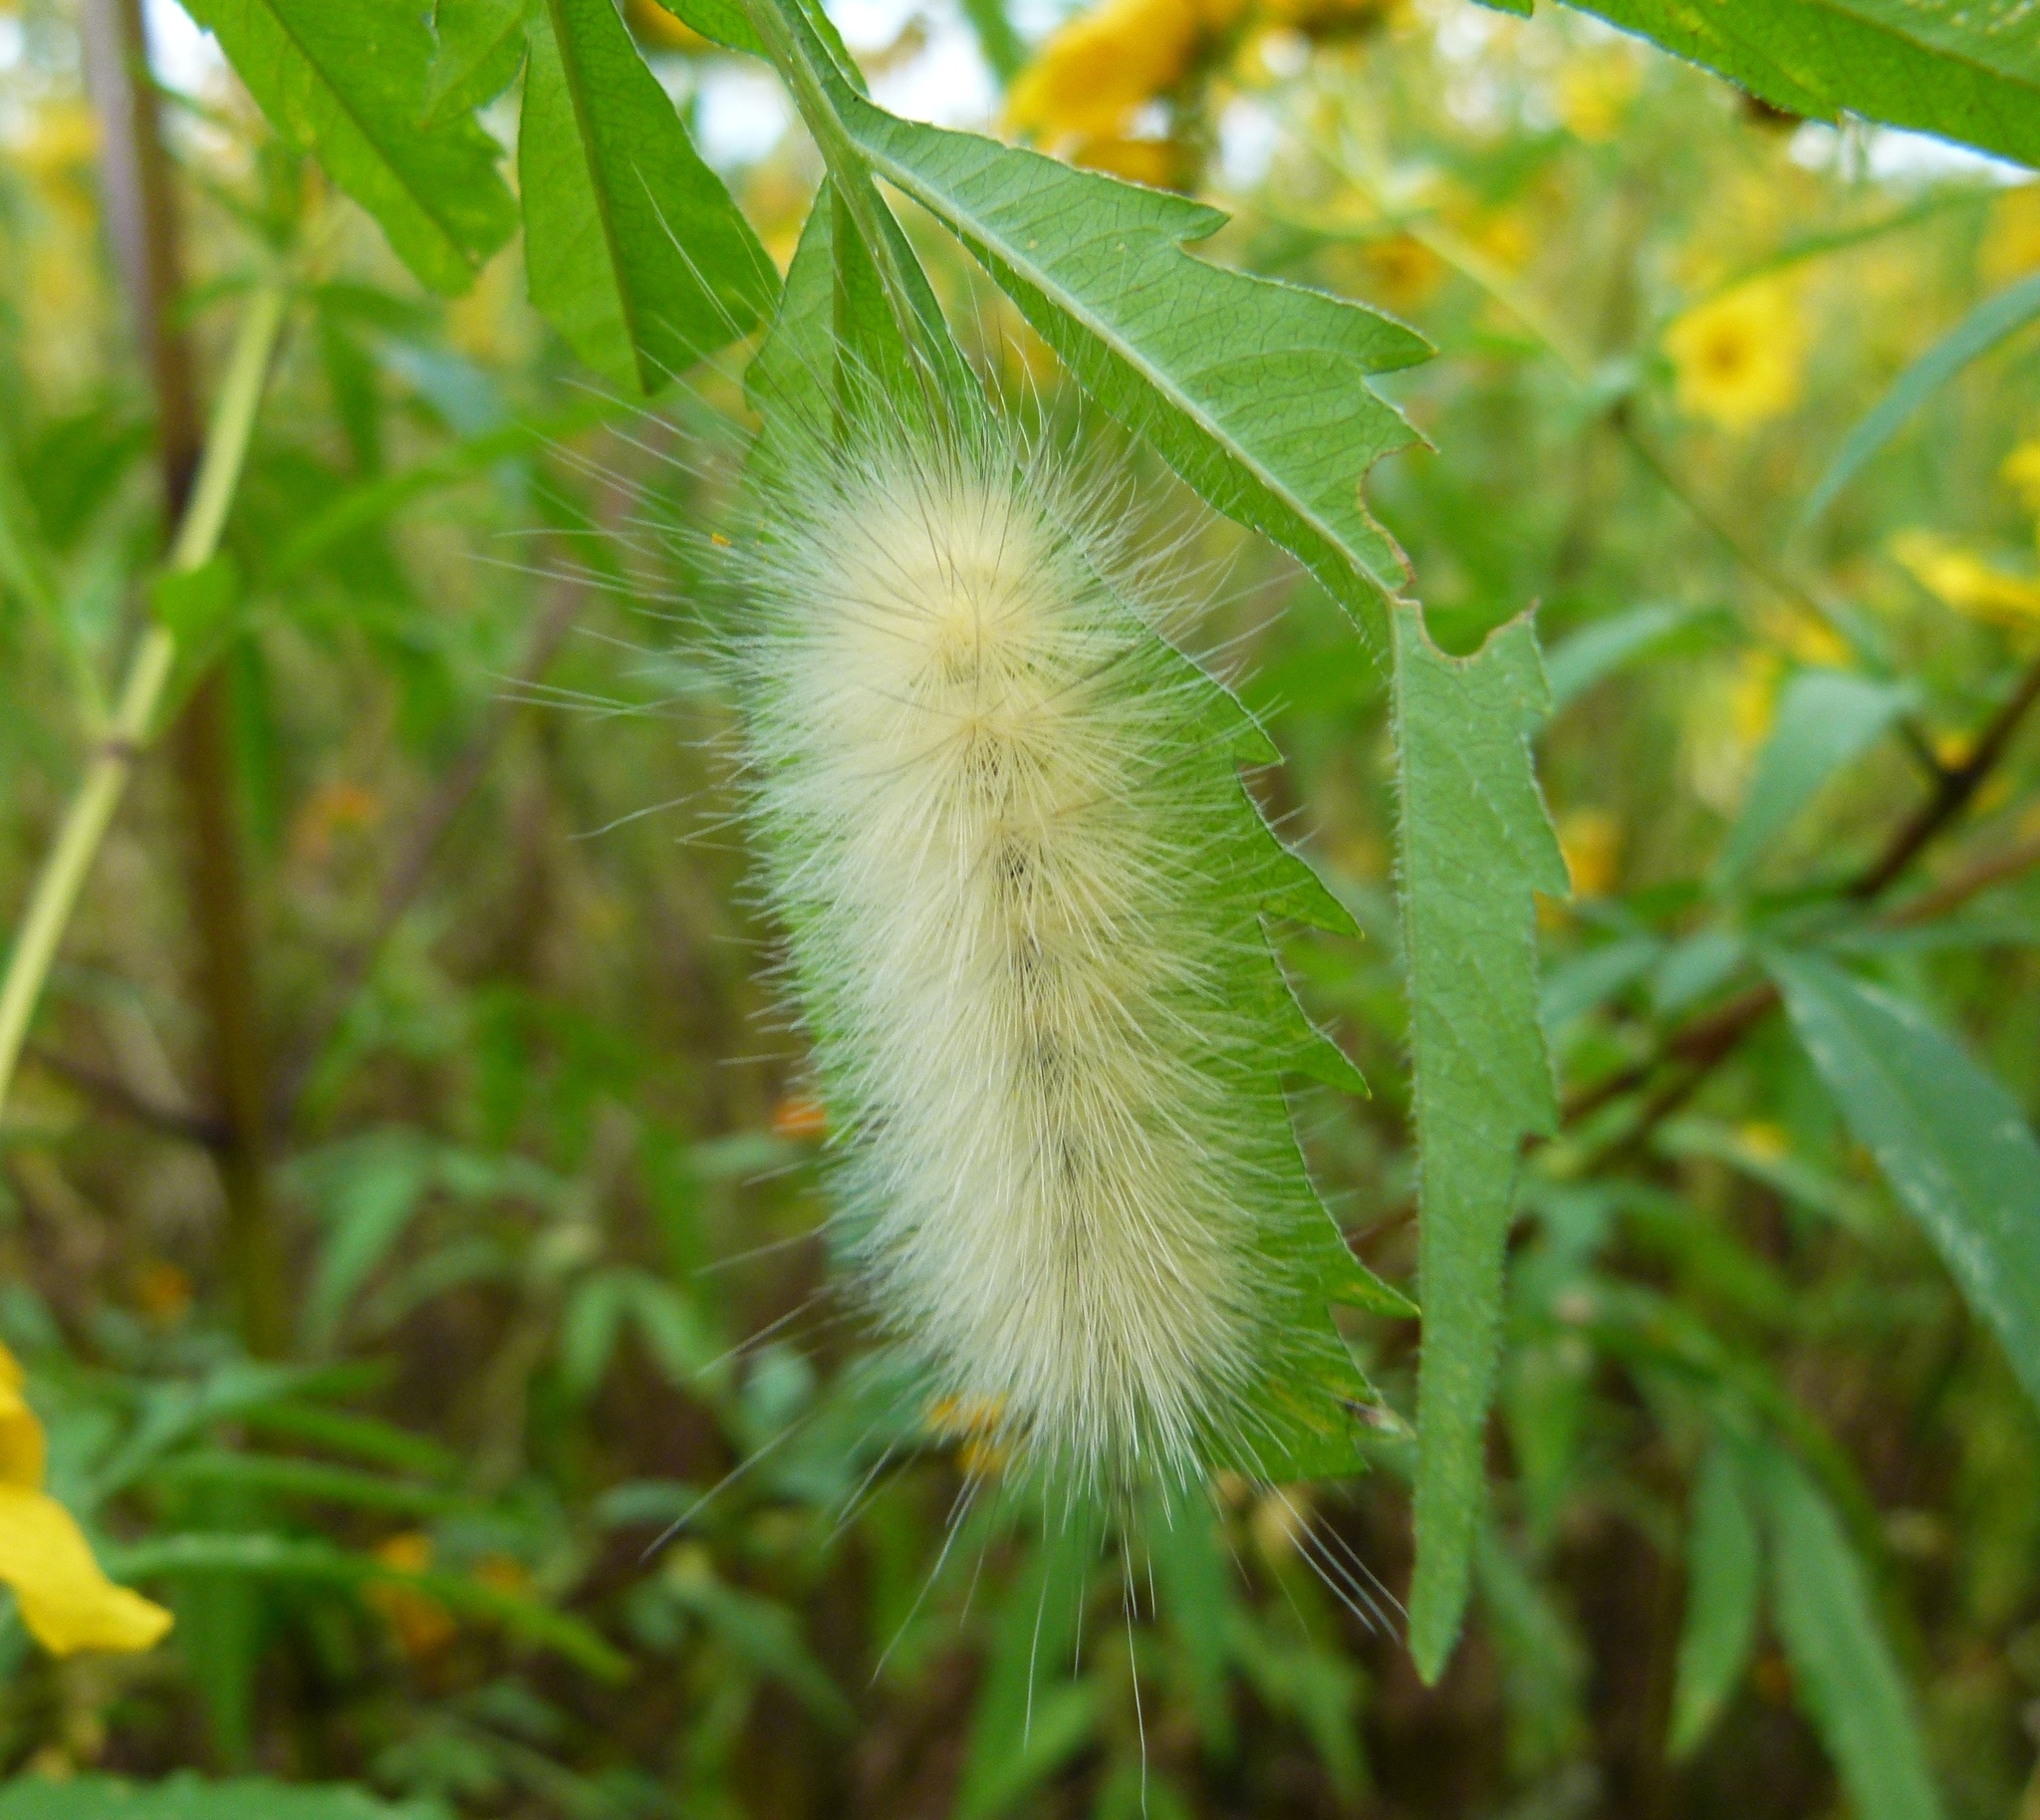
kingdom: Animalia
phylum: Arthropoda
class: Insecta
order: Lepidoptera
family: Erebidae
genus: Spilosoma
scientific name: Spilosoma virginica
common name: Virginia tiger moth
